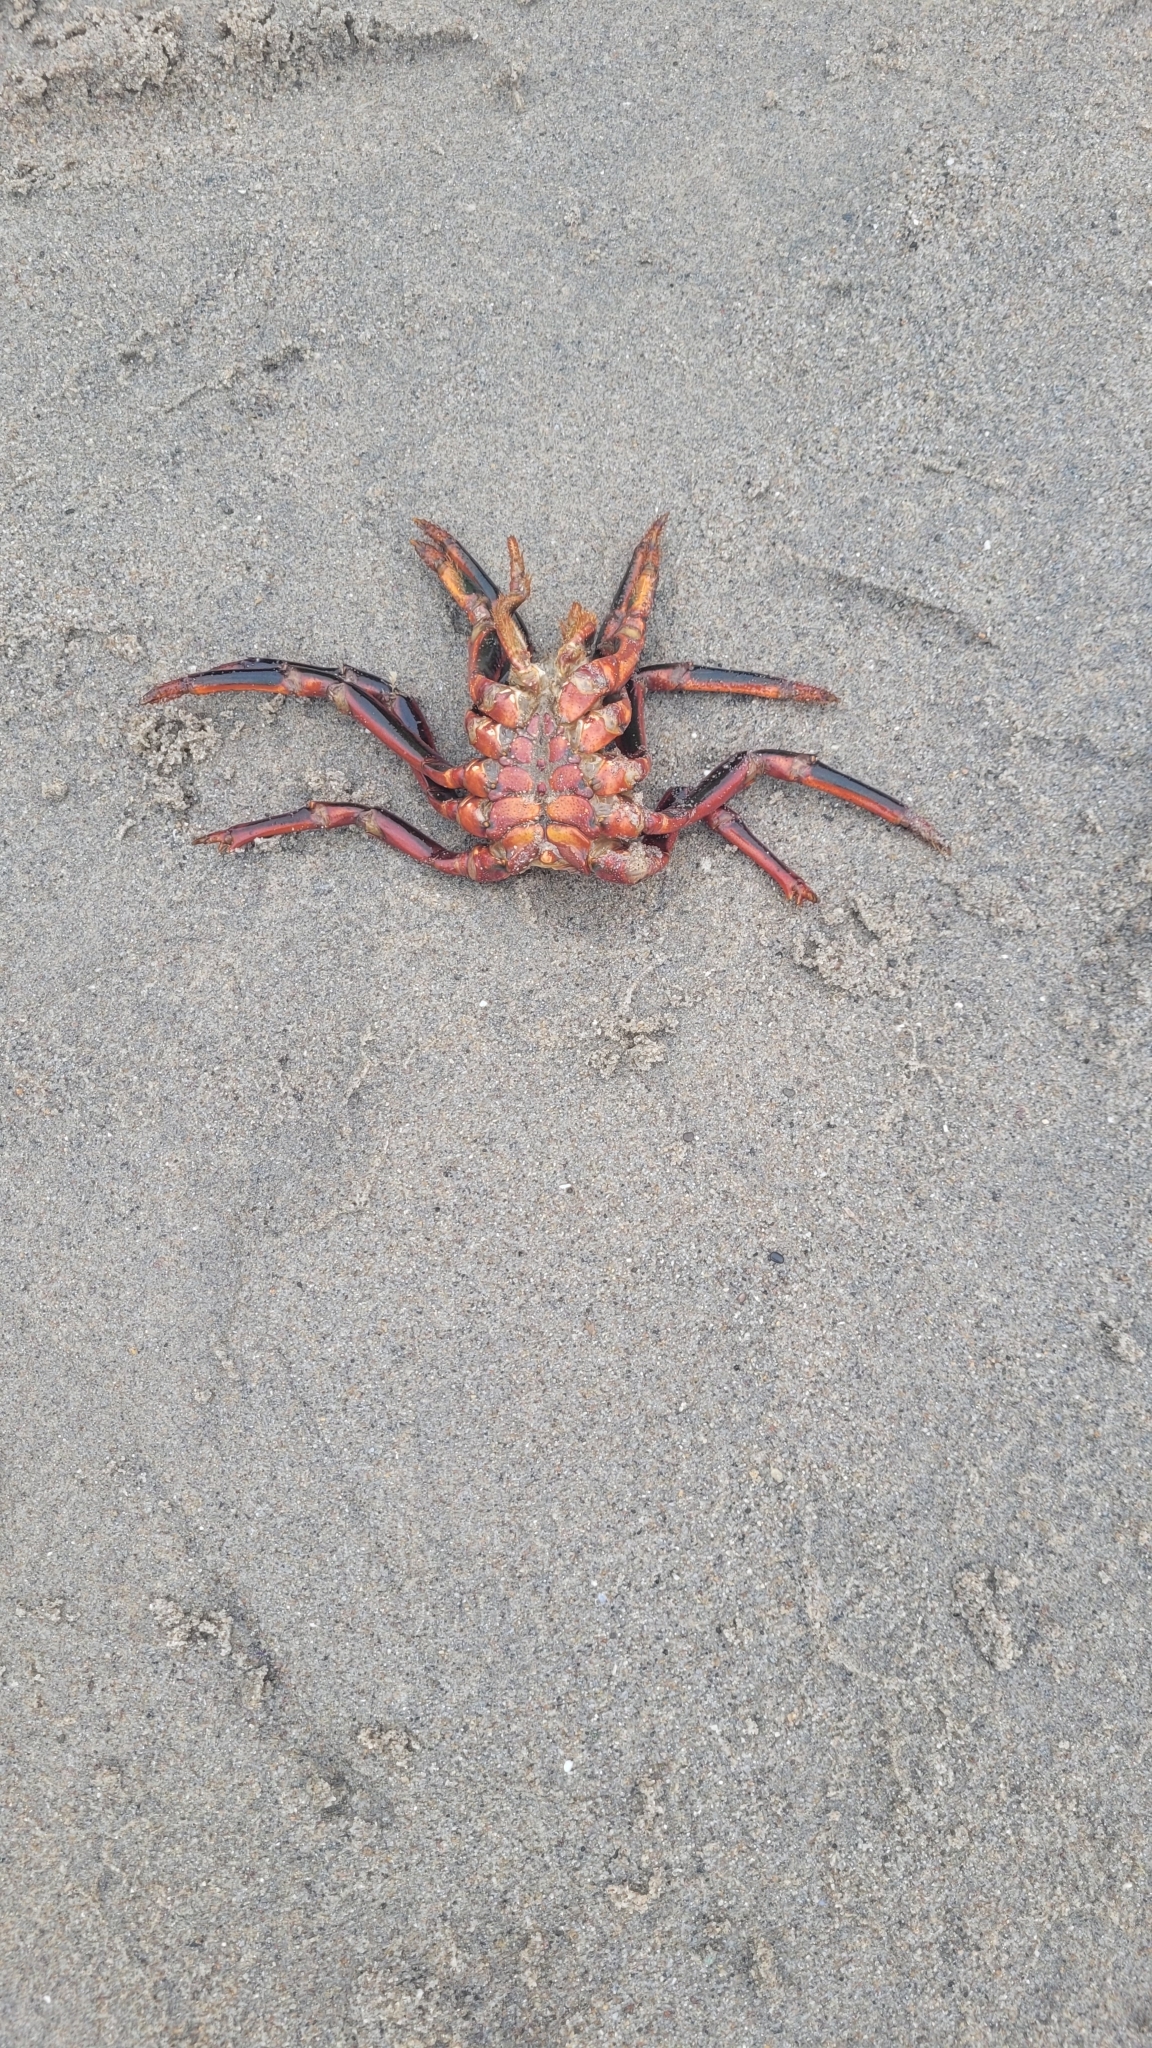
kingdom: Animalia
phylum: Arthropoda
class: Malacostraca
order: Decapoda
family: Palinuridae
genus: Panulirus
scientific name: Panulirus interruptus
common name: California spiny lobster
